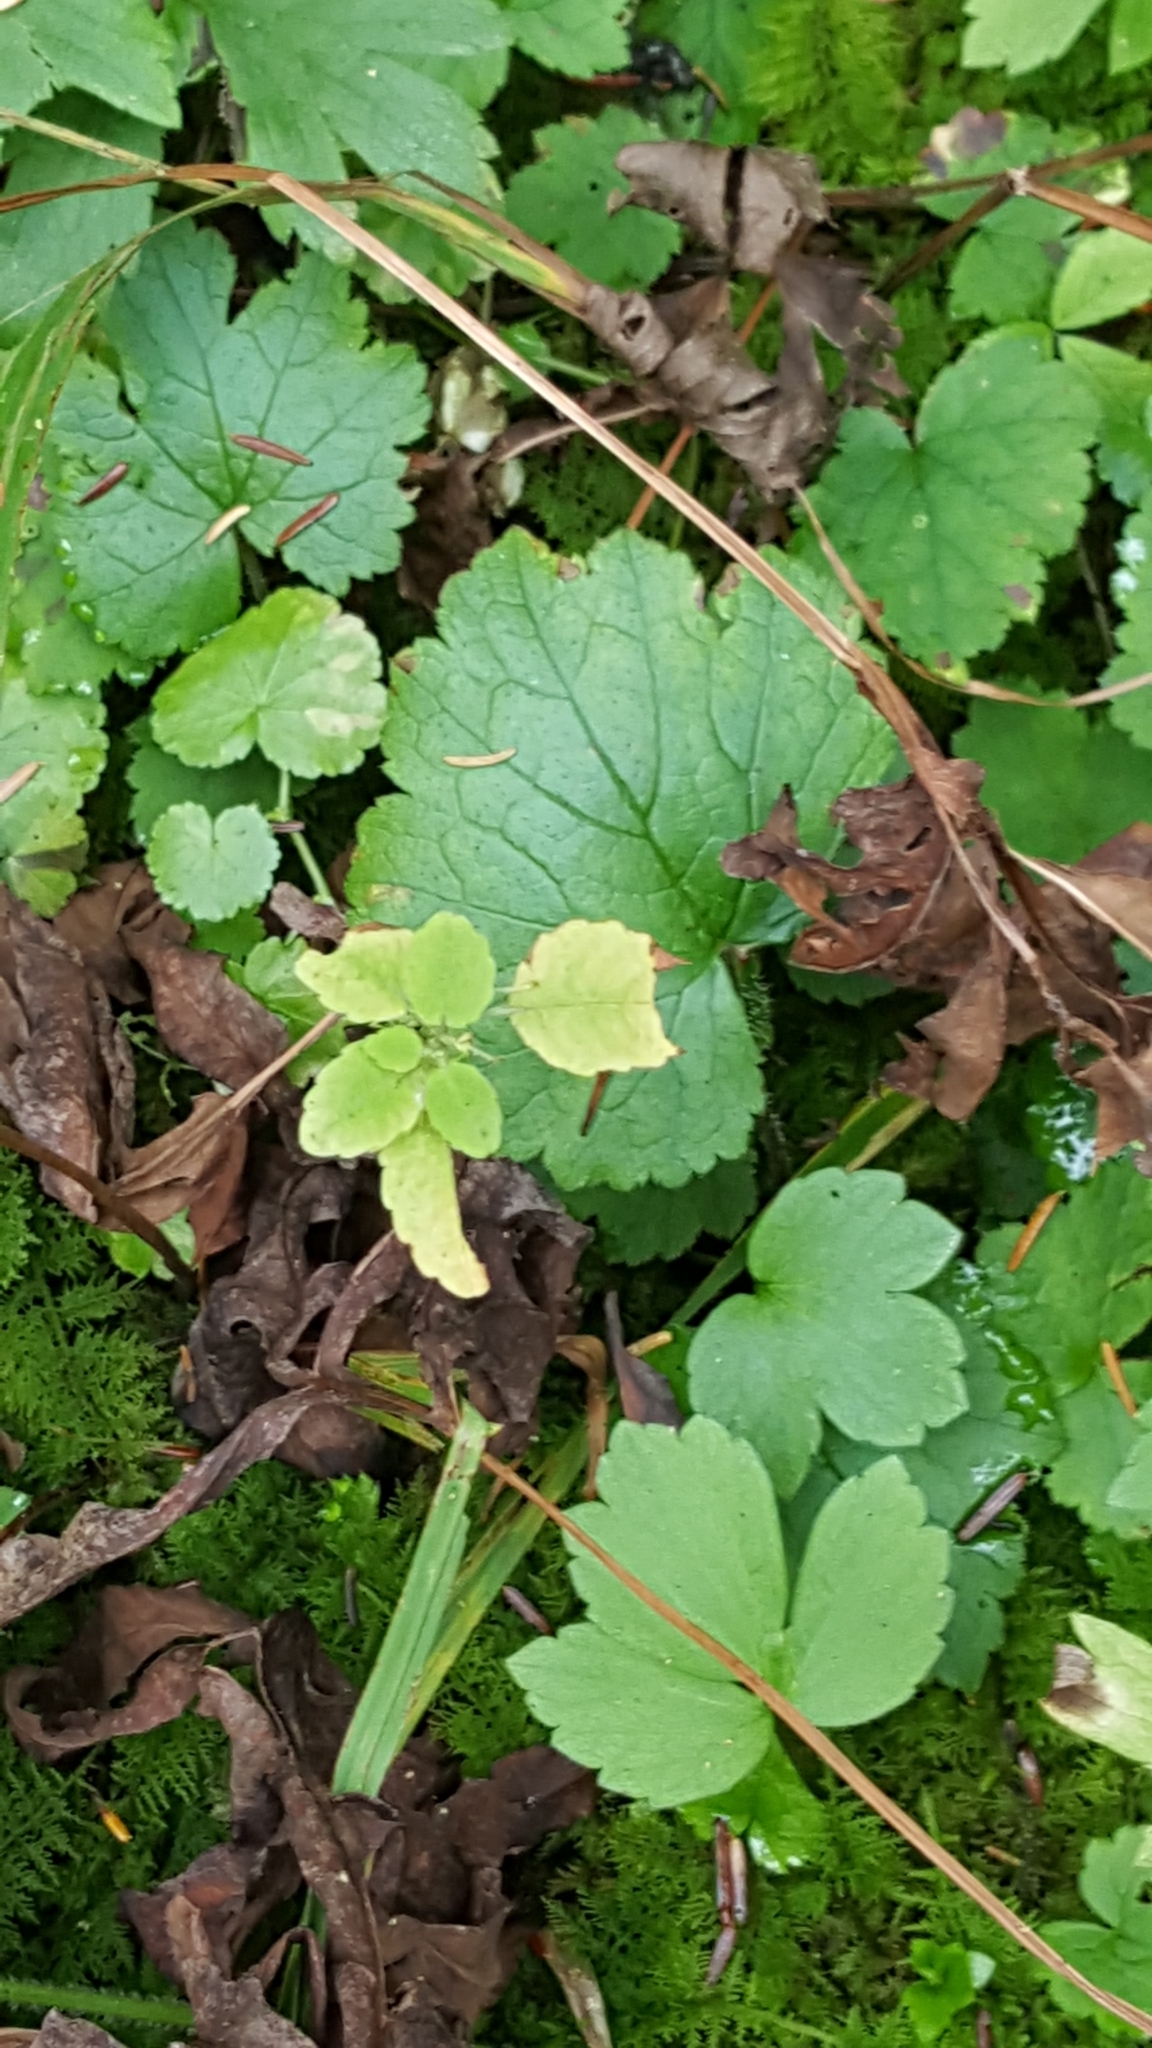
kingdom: Plantae
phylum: Tracheophyta
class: Magnoliopsida
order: Saxifragales
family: Saxifragaceae
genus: Tiarella
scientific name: Tiarella stolonifera
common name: Stoloniferous foamflower
